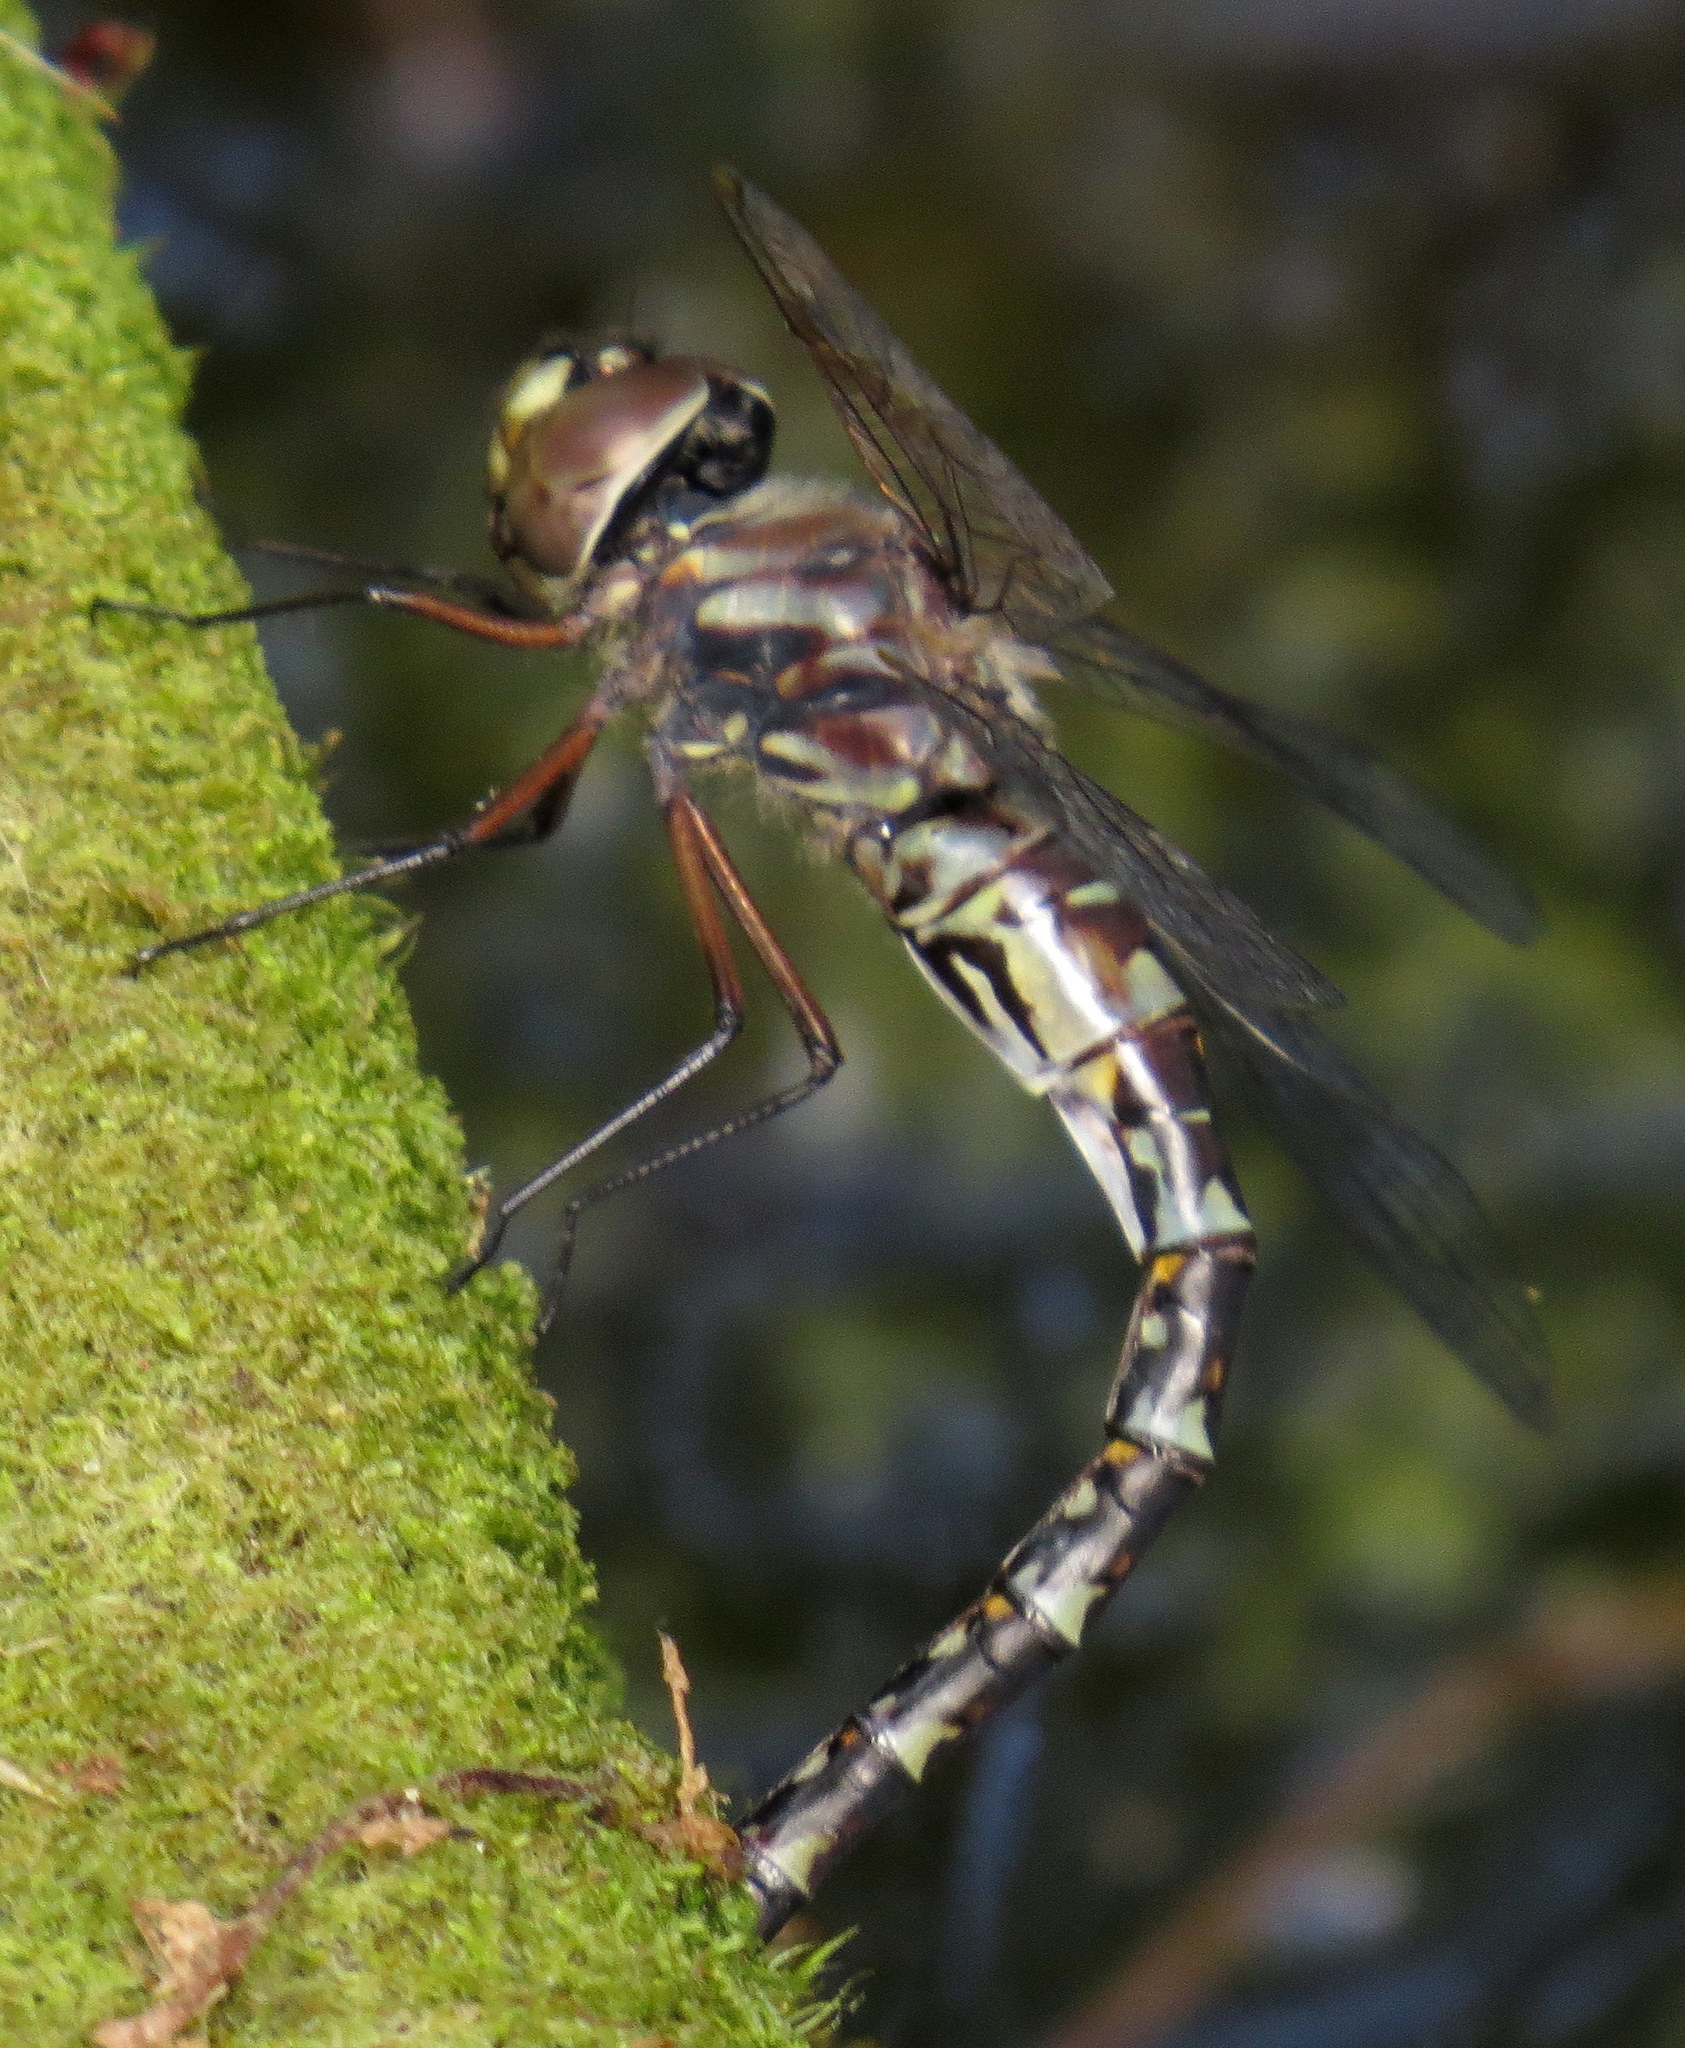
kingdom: Animalia
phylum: Arthropoda
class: Insecta
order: Odonata
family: Aeshnidae
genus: Gomphaeschna
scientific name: Gomphaeschna antilope
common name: Taper-tailed darner
